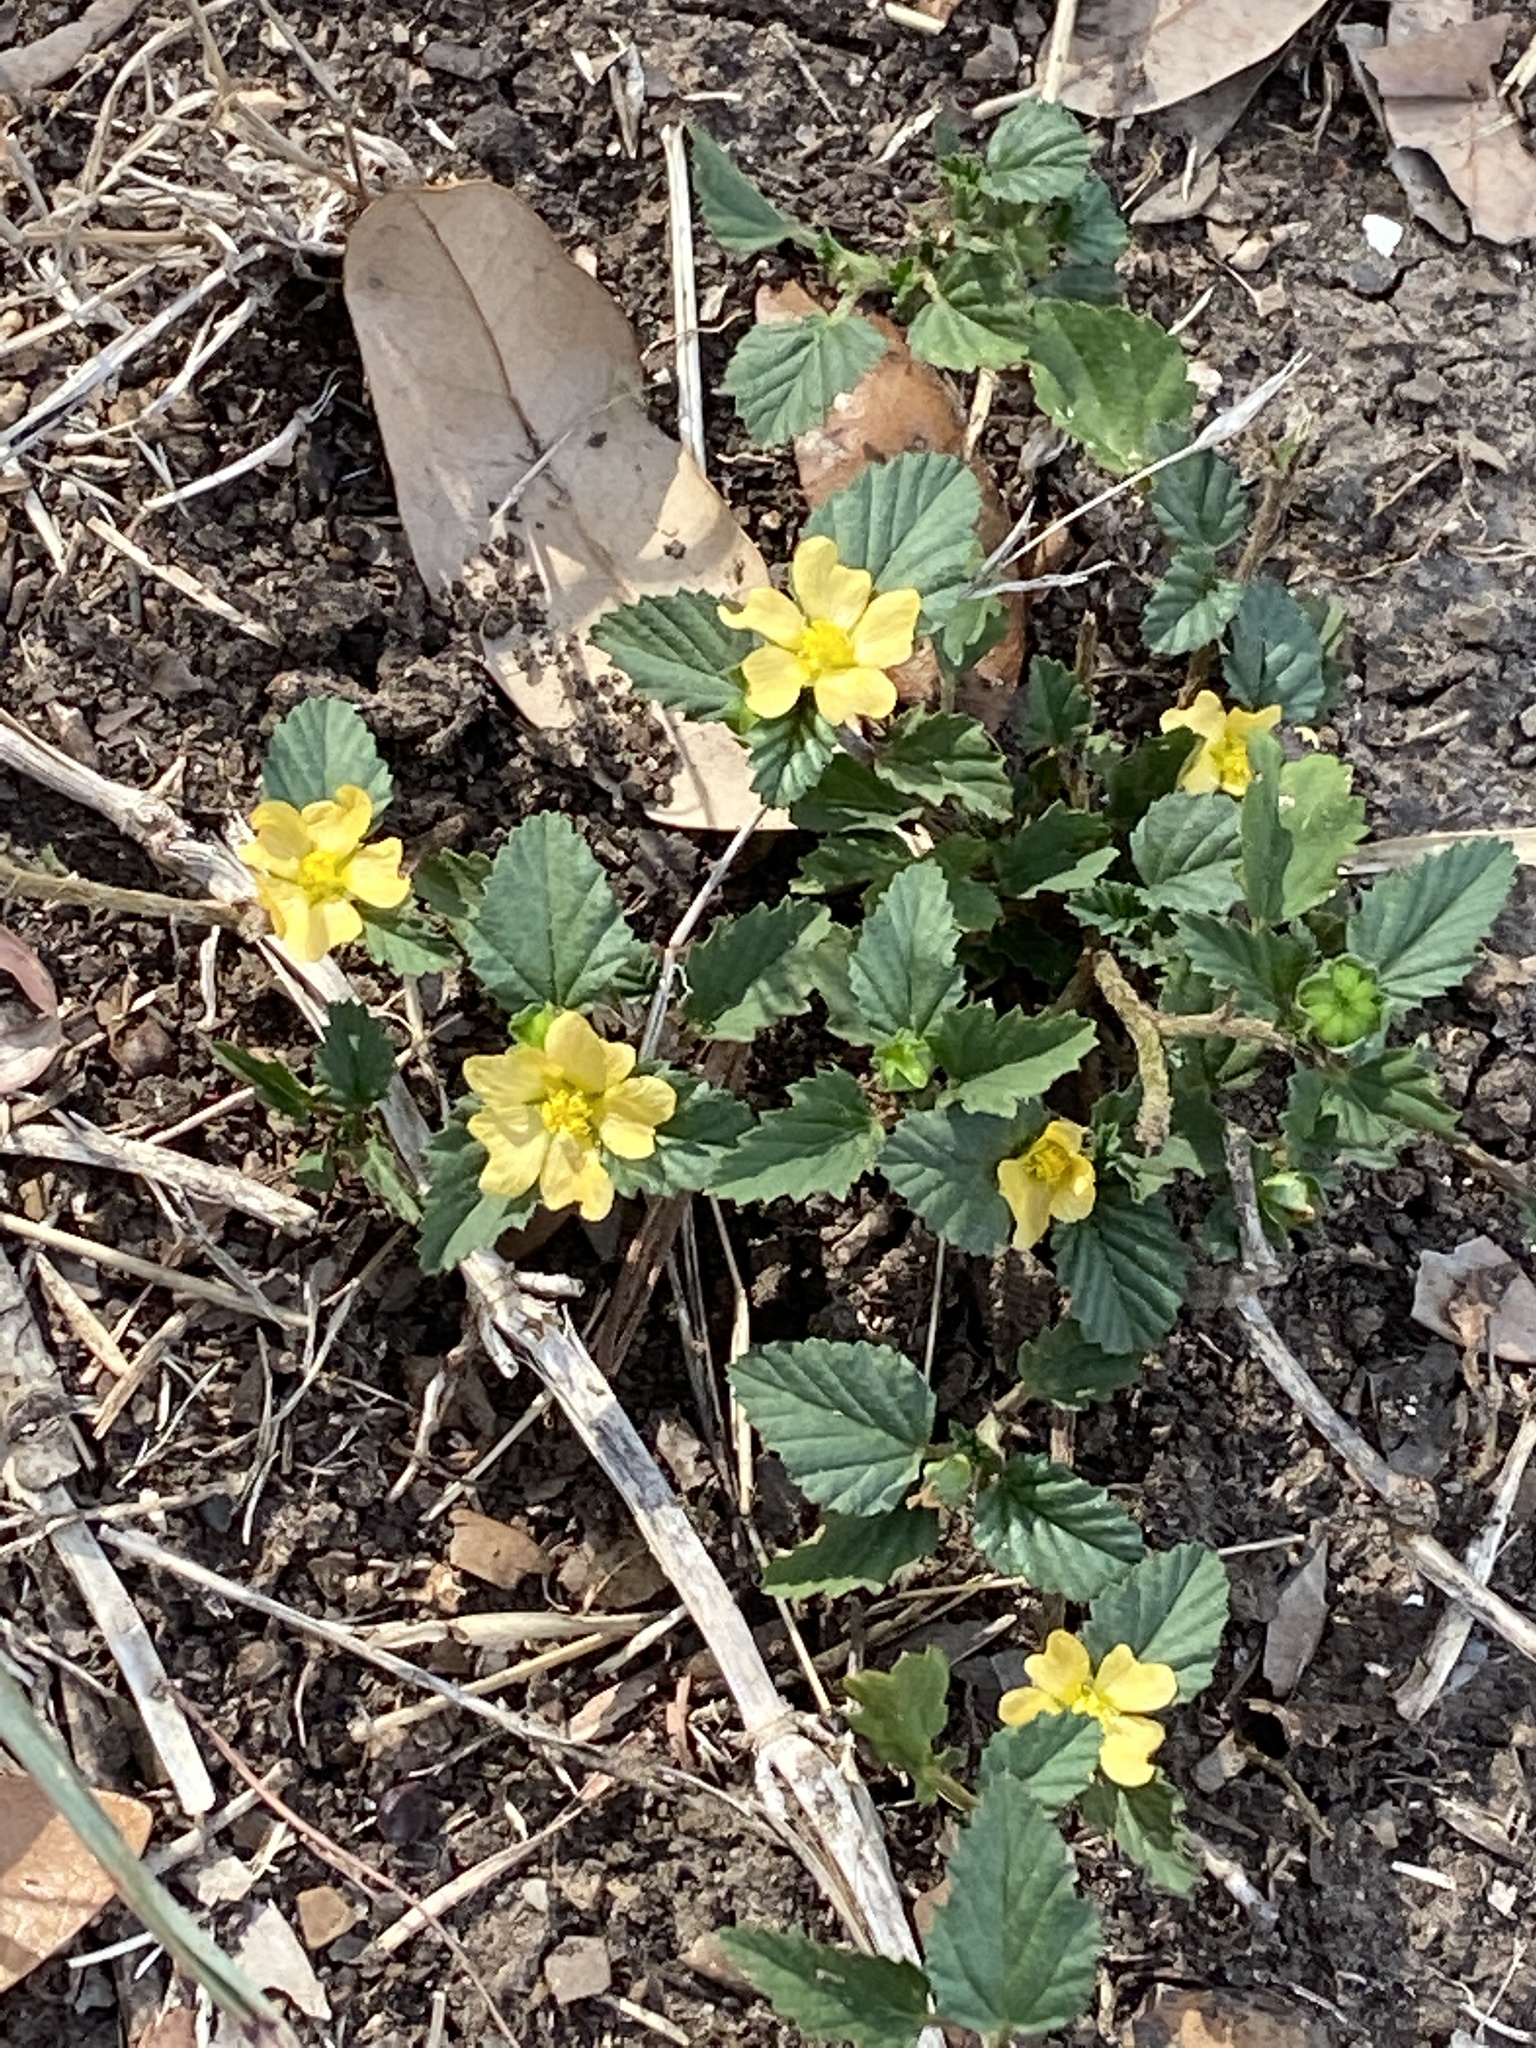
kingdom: Plantae
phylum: Tracheophyta
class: Magnoliopsida
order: Malvales
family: Malvaceae
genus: Malvastrum
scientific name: Malvastrum coromandelianum
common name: Threelobe false mallow
